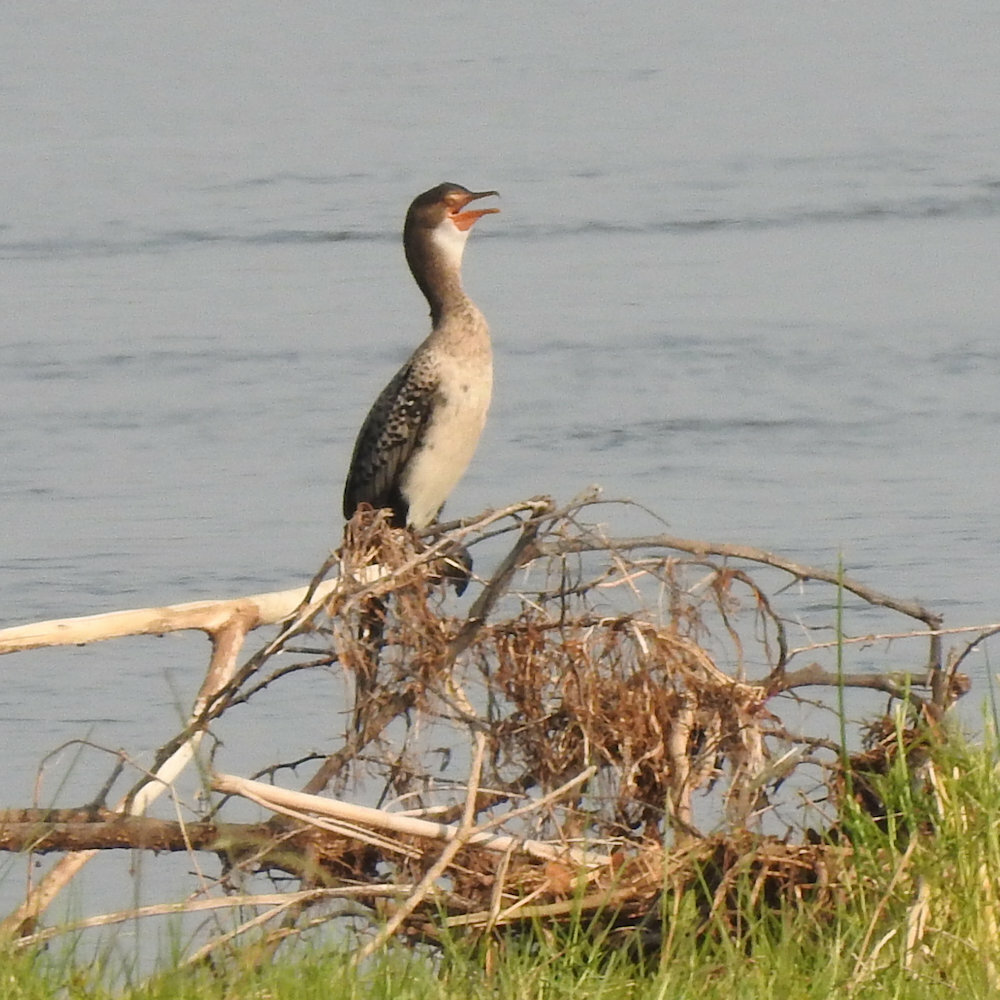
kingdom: Animalia
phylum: Chordata
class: Aves
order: Suliformes
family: Phalacrocoracidae
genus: Microcarbo
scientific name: Microcarbo africanus
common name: Long-tailed cormorant
